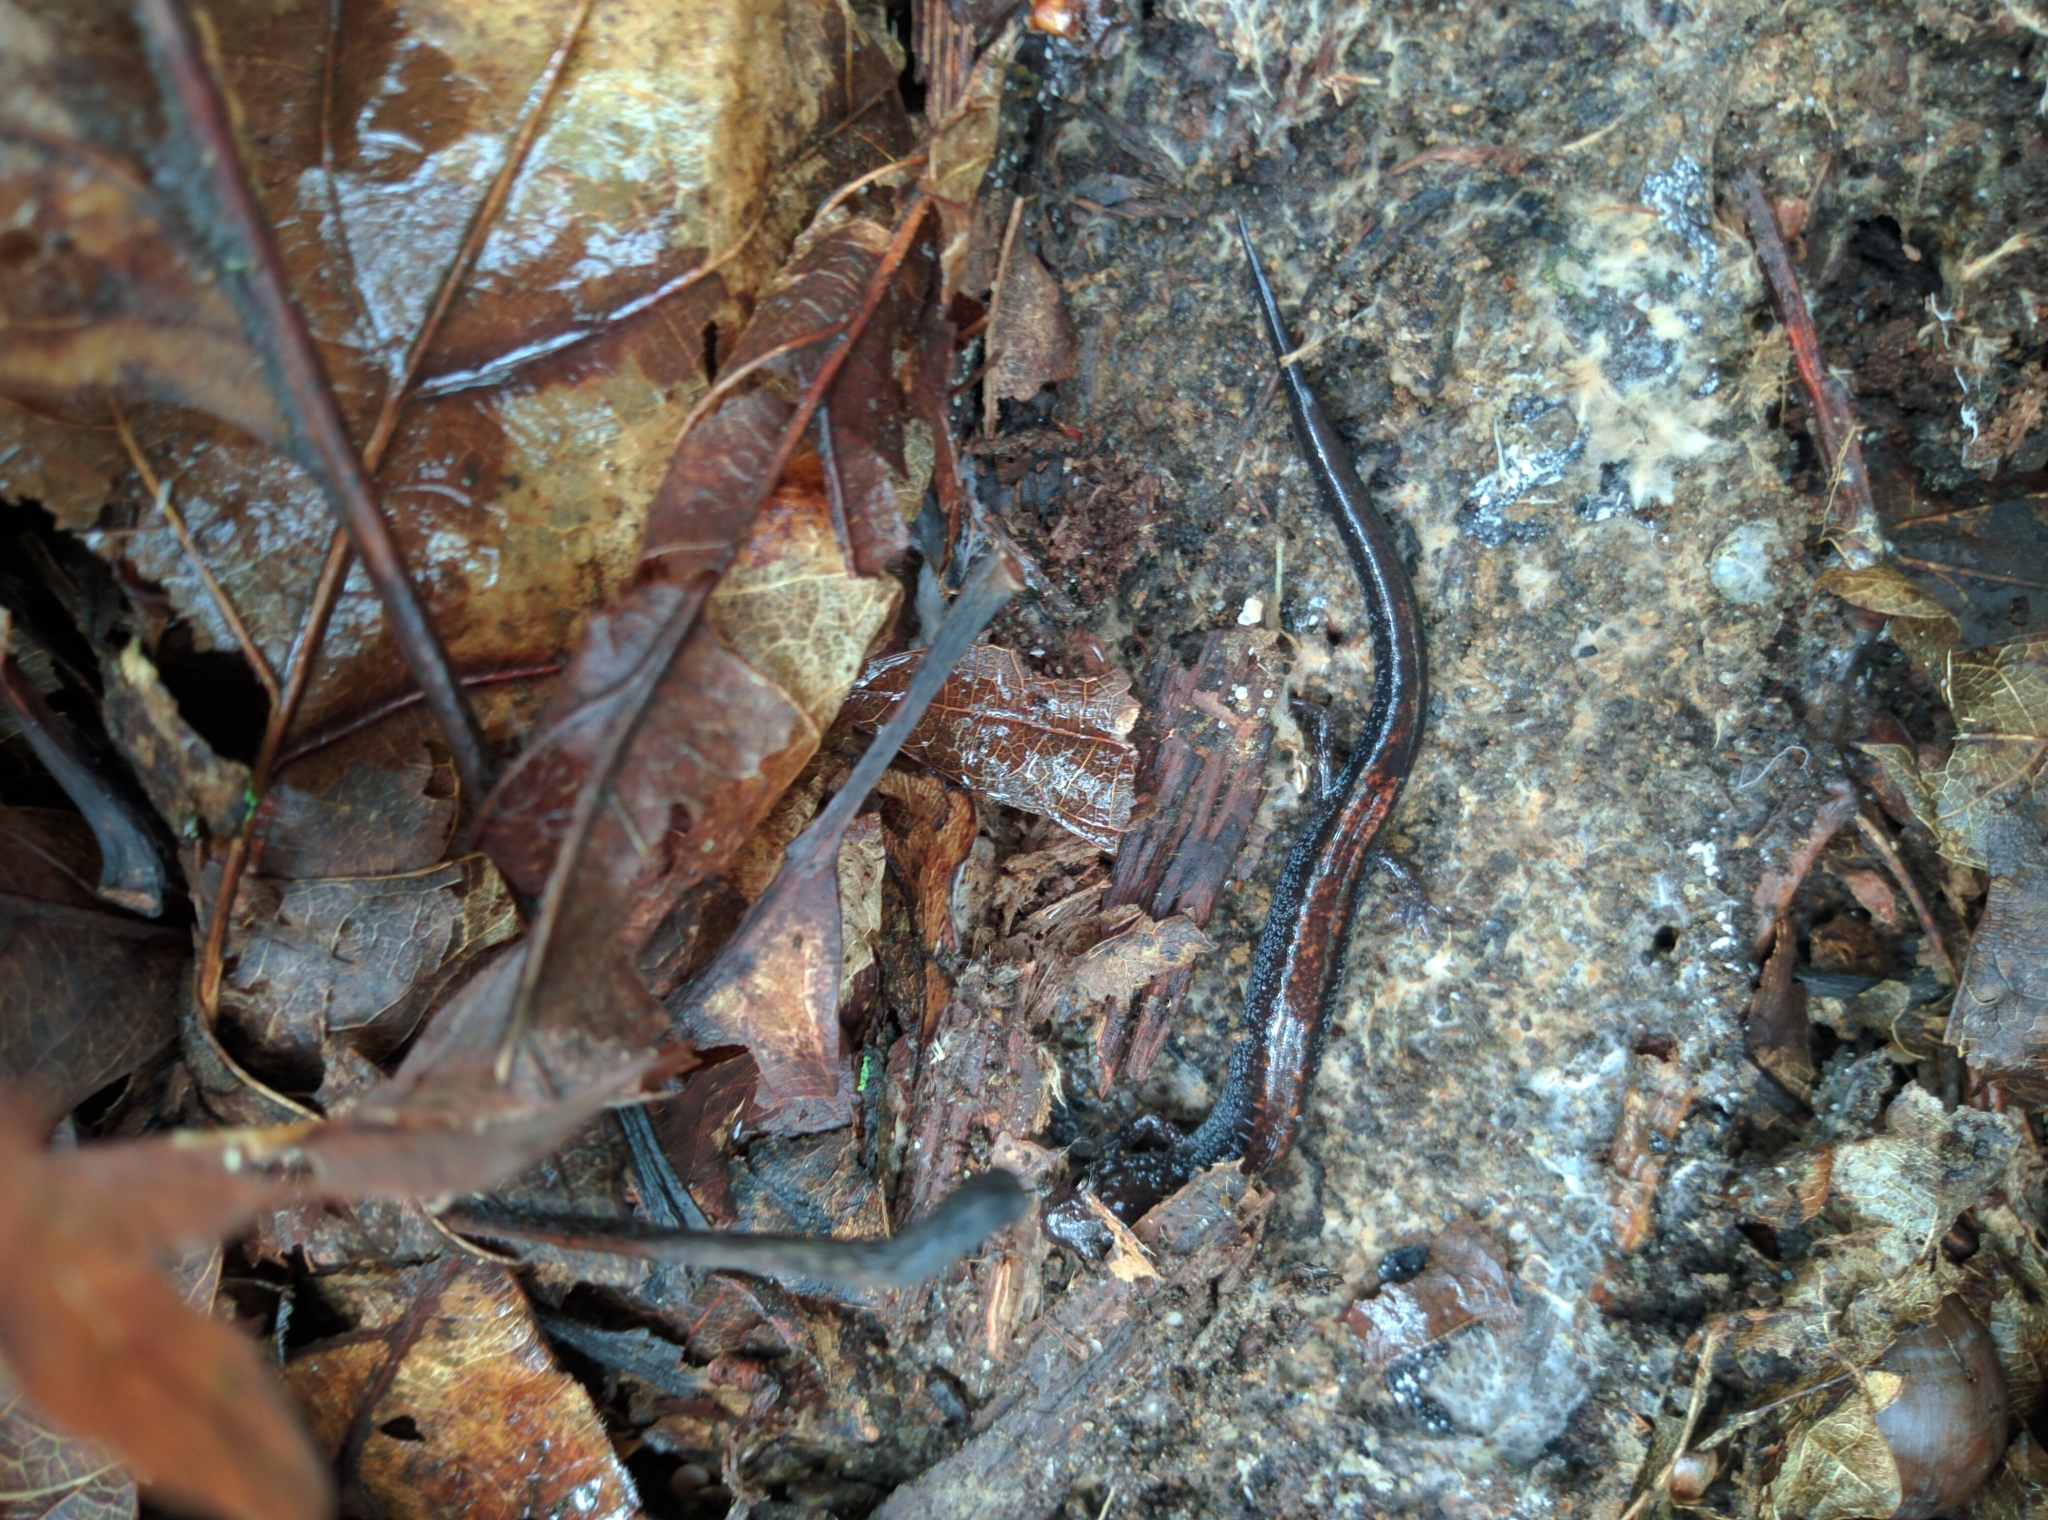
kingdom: Animalia
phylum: Chordata
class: Amphibia
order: Caudata
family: Plethodontidae
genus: Plethodon
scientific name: Plethodon cinereus
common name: Redback salamander
